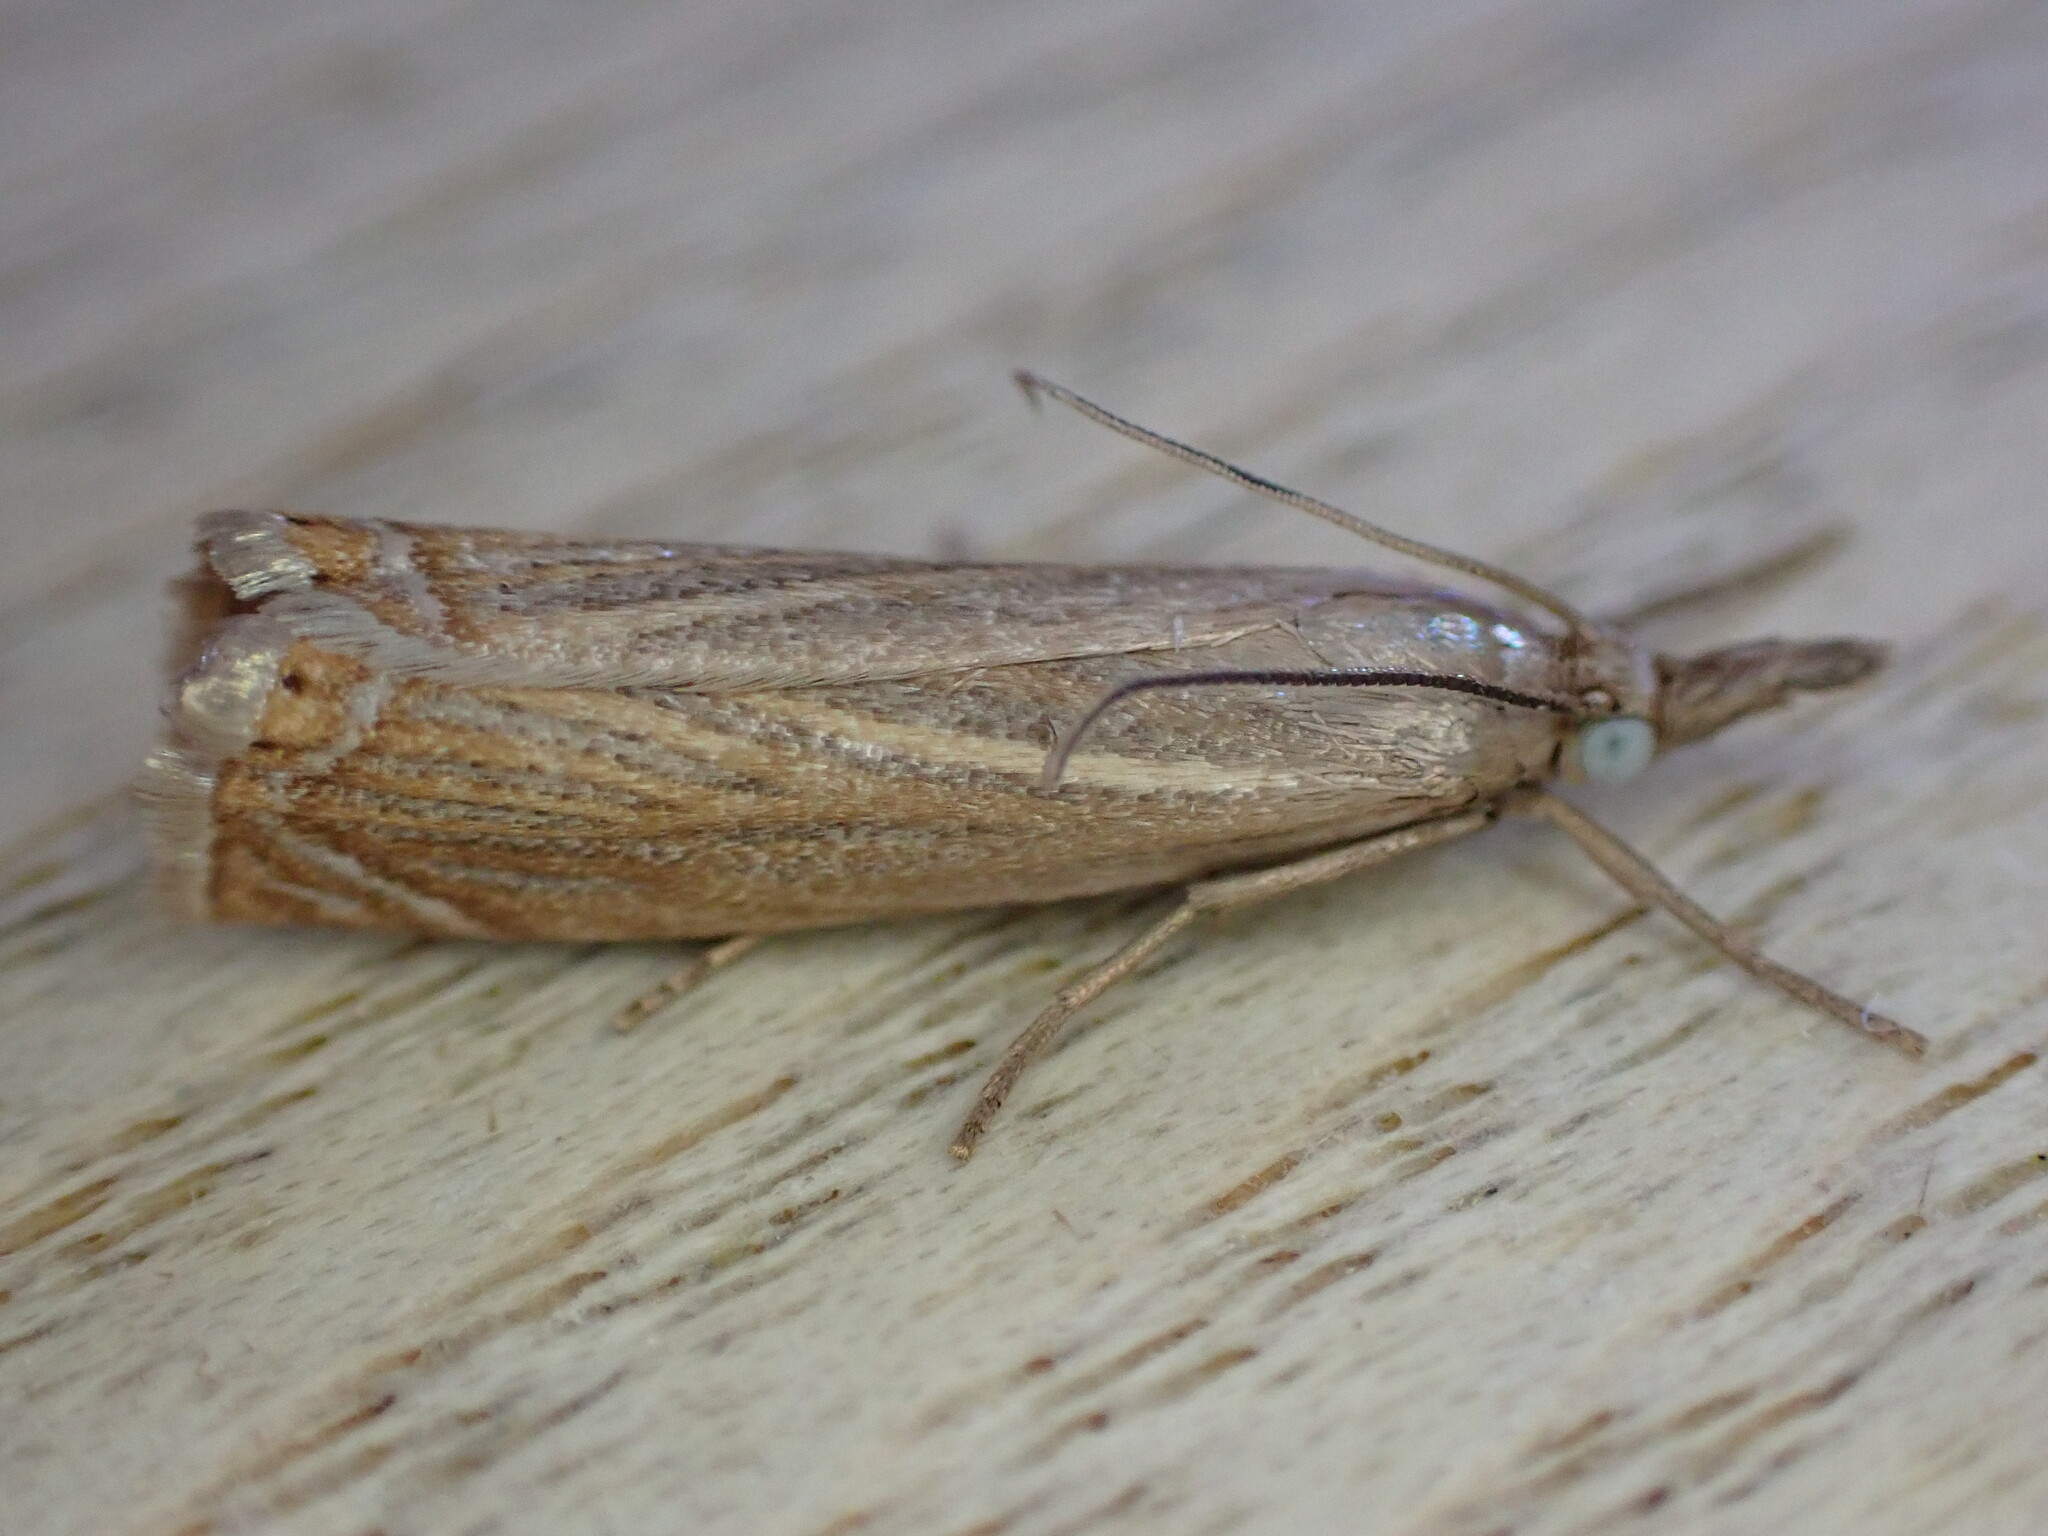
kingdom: Animalia
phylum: Arthropoda
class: Insecta
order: Lepidoptera
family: Crambidae
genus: Chrysoteuchia
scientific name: Chrysoteuchia culmella
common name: Garden grass-veneer
